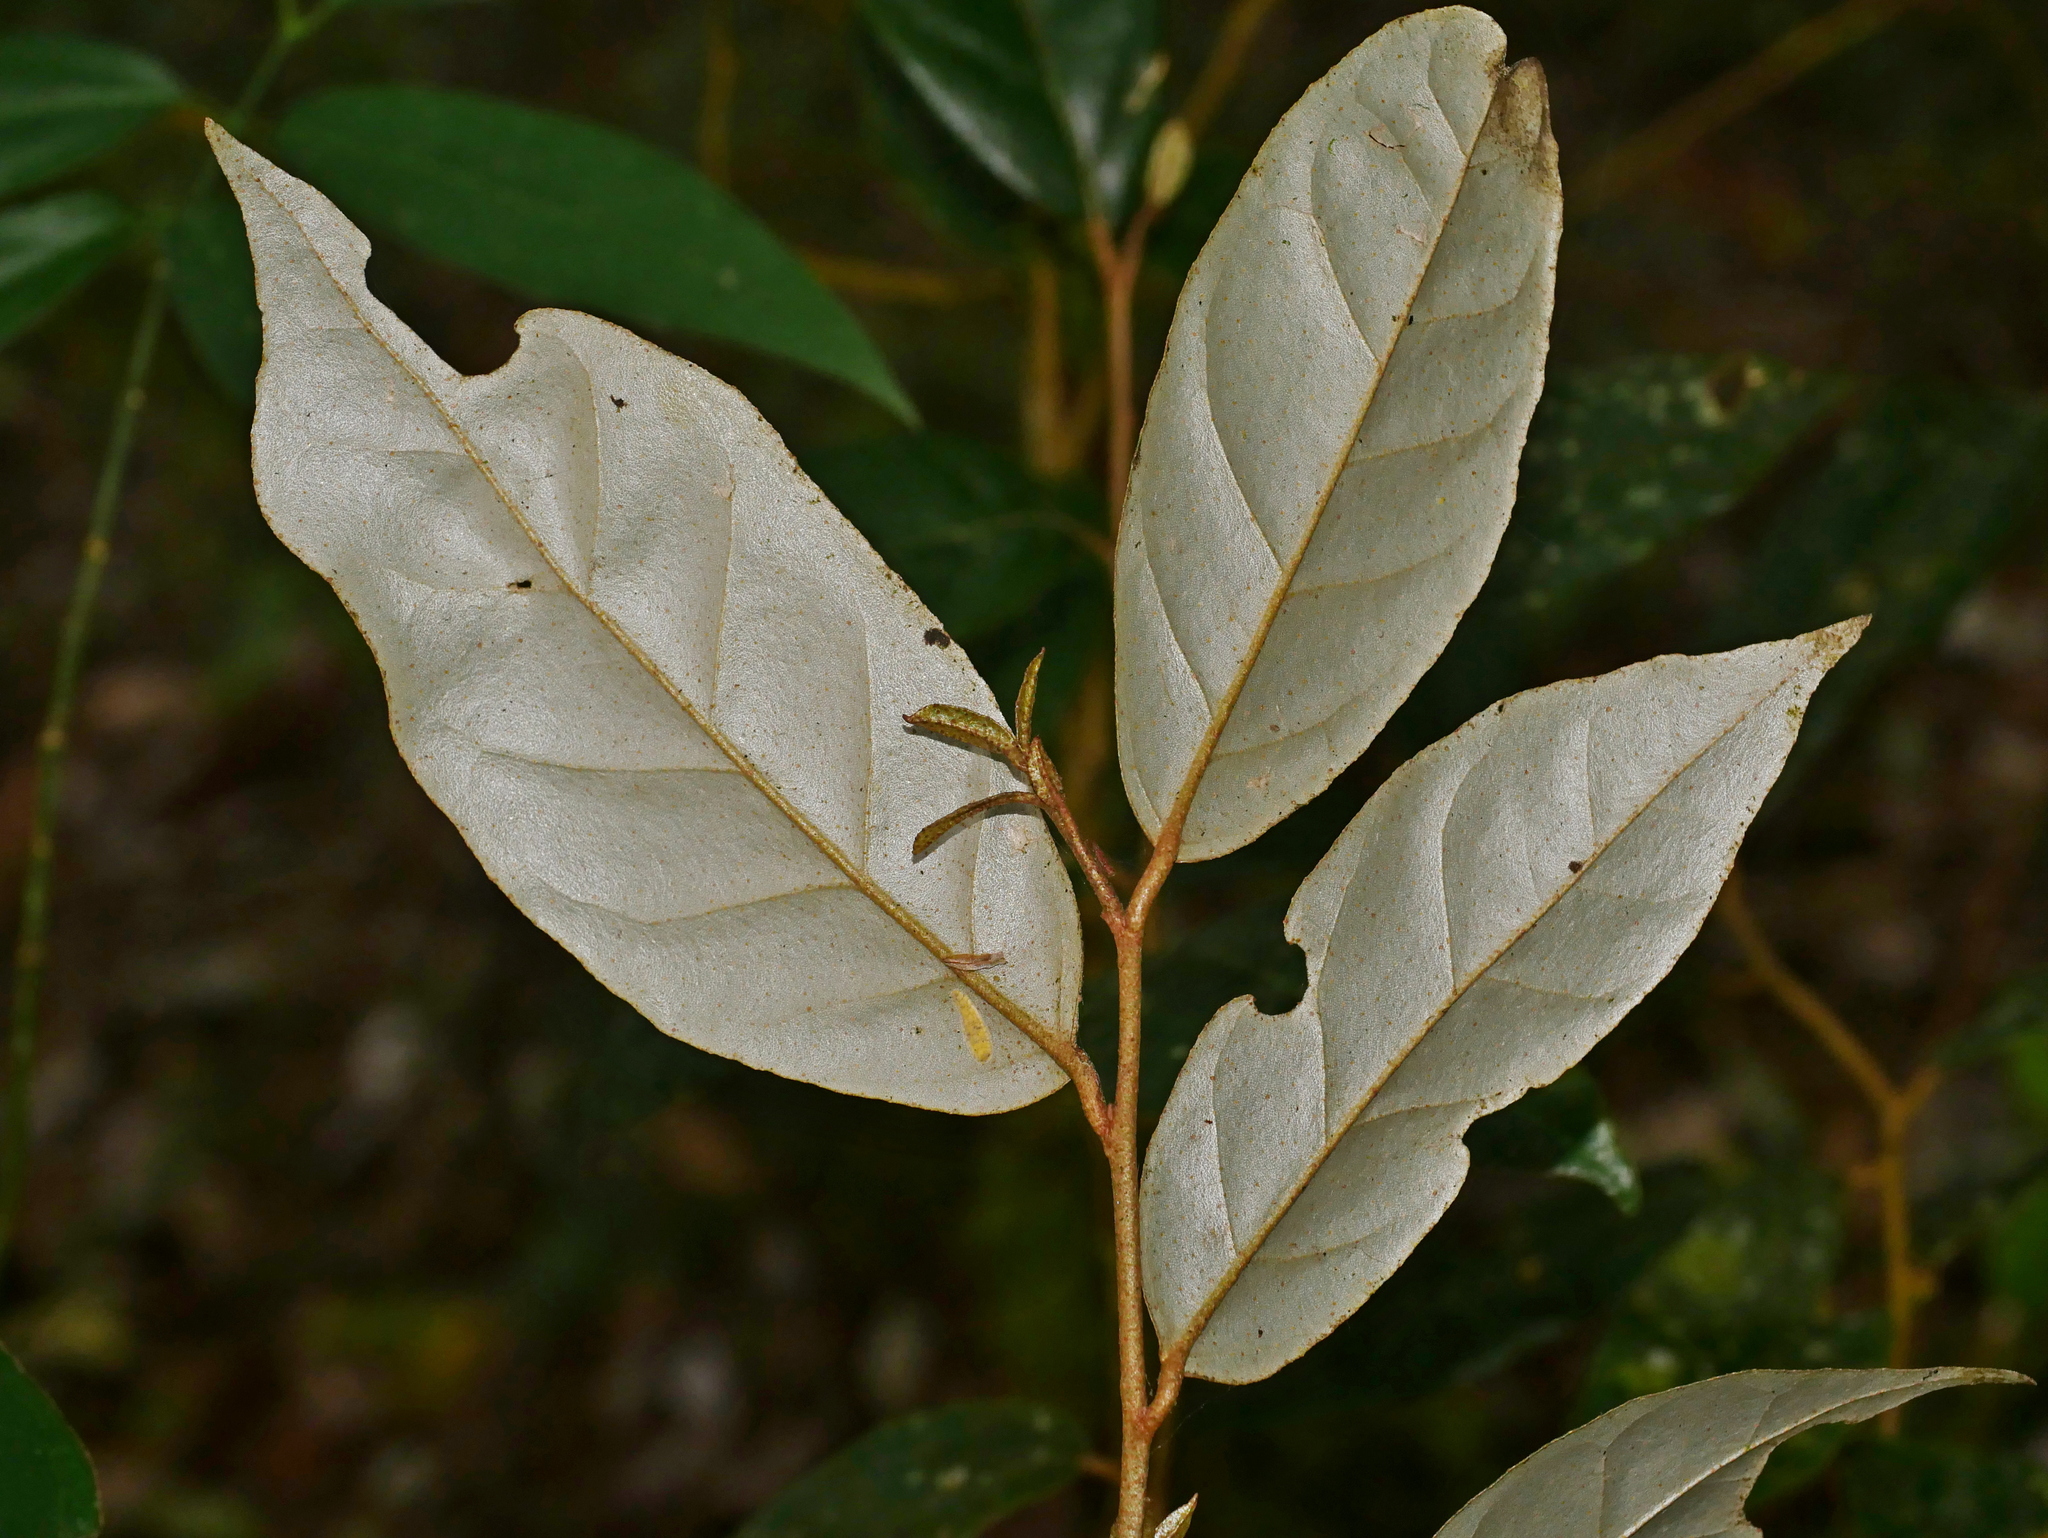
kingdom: Plantae
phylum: Tracheophyta
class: Magnoliopsida
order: Rosales
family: Elaeagnaceae
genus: Elaeagnus
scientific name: Elaeagnus
